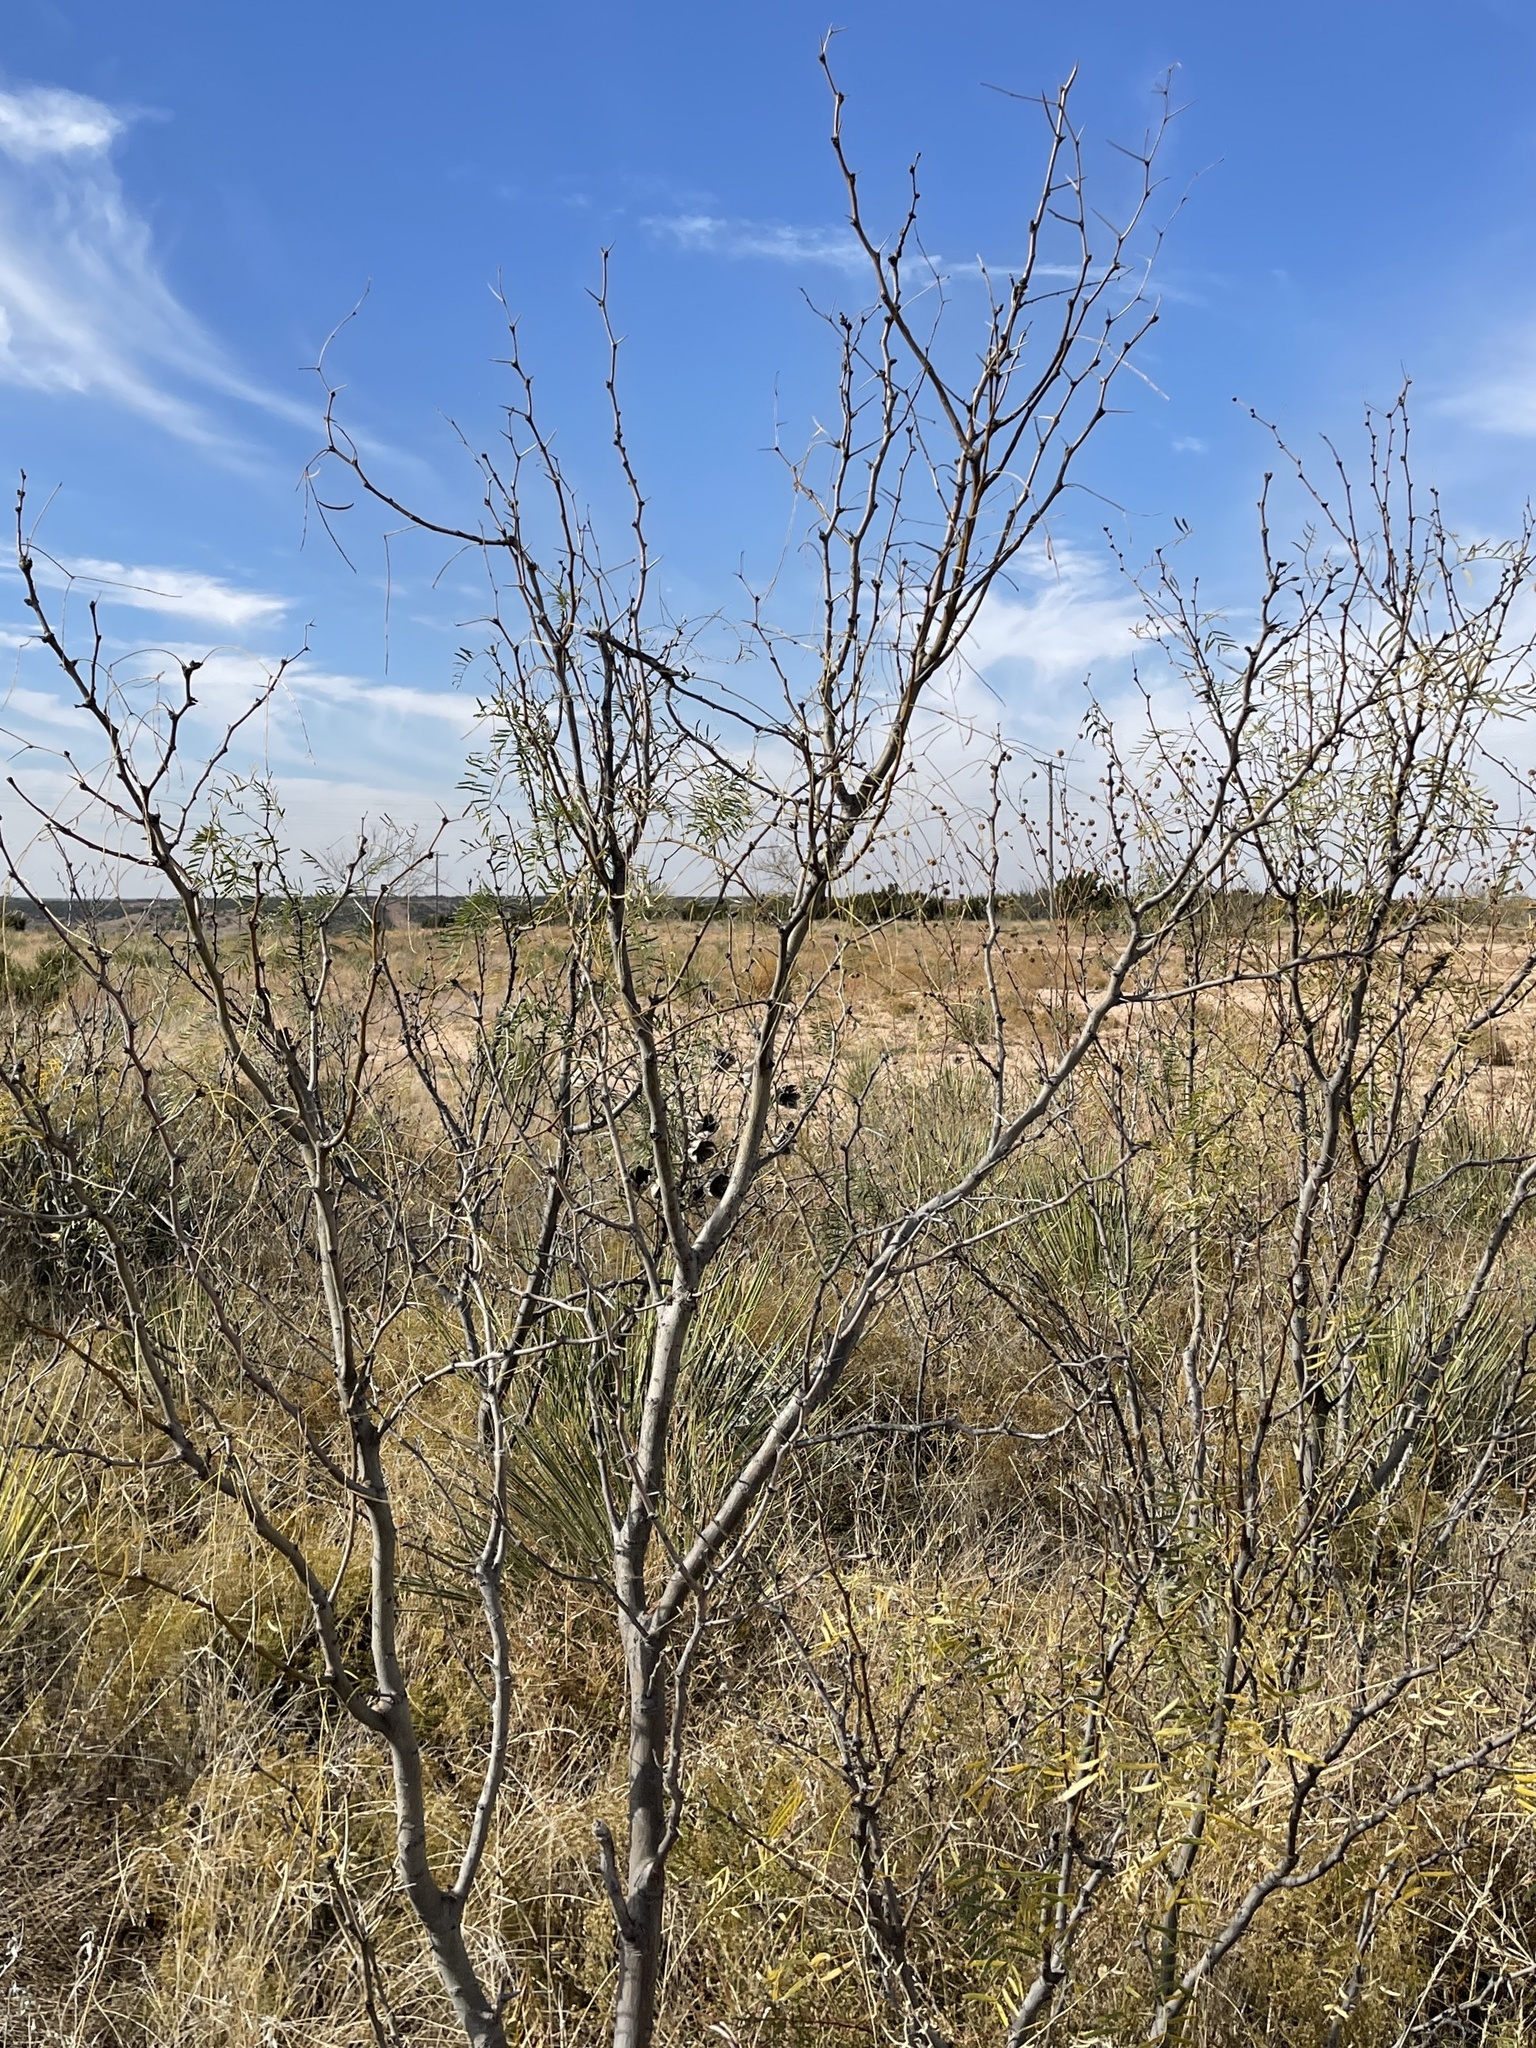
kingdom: Plantae
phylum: Tracheophyta
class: Magnoliopsida
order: Fabales
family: Fabaceae
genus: Prosopis
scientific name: Prosopis glandulosa
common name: Honey mesquite
